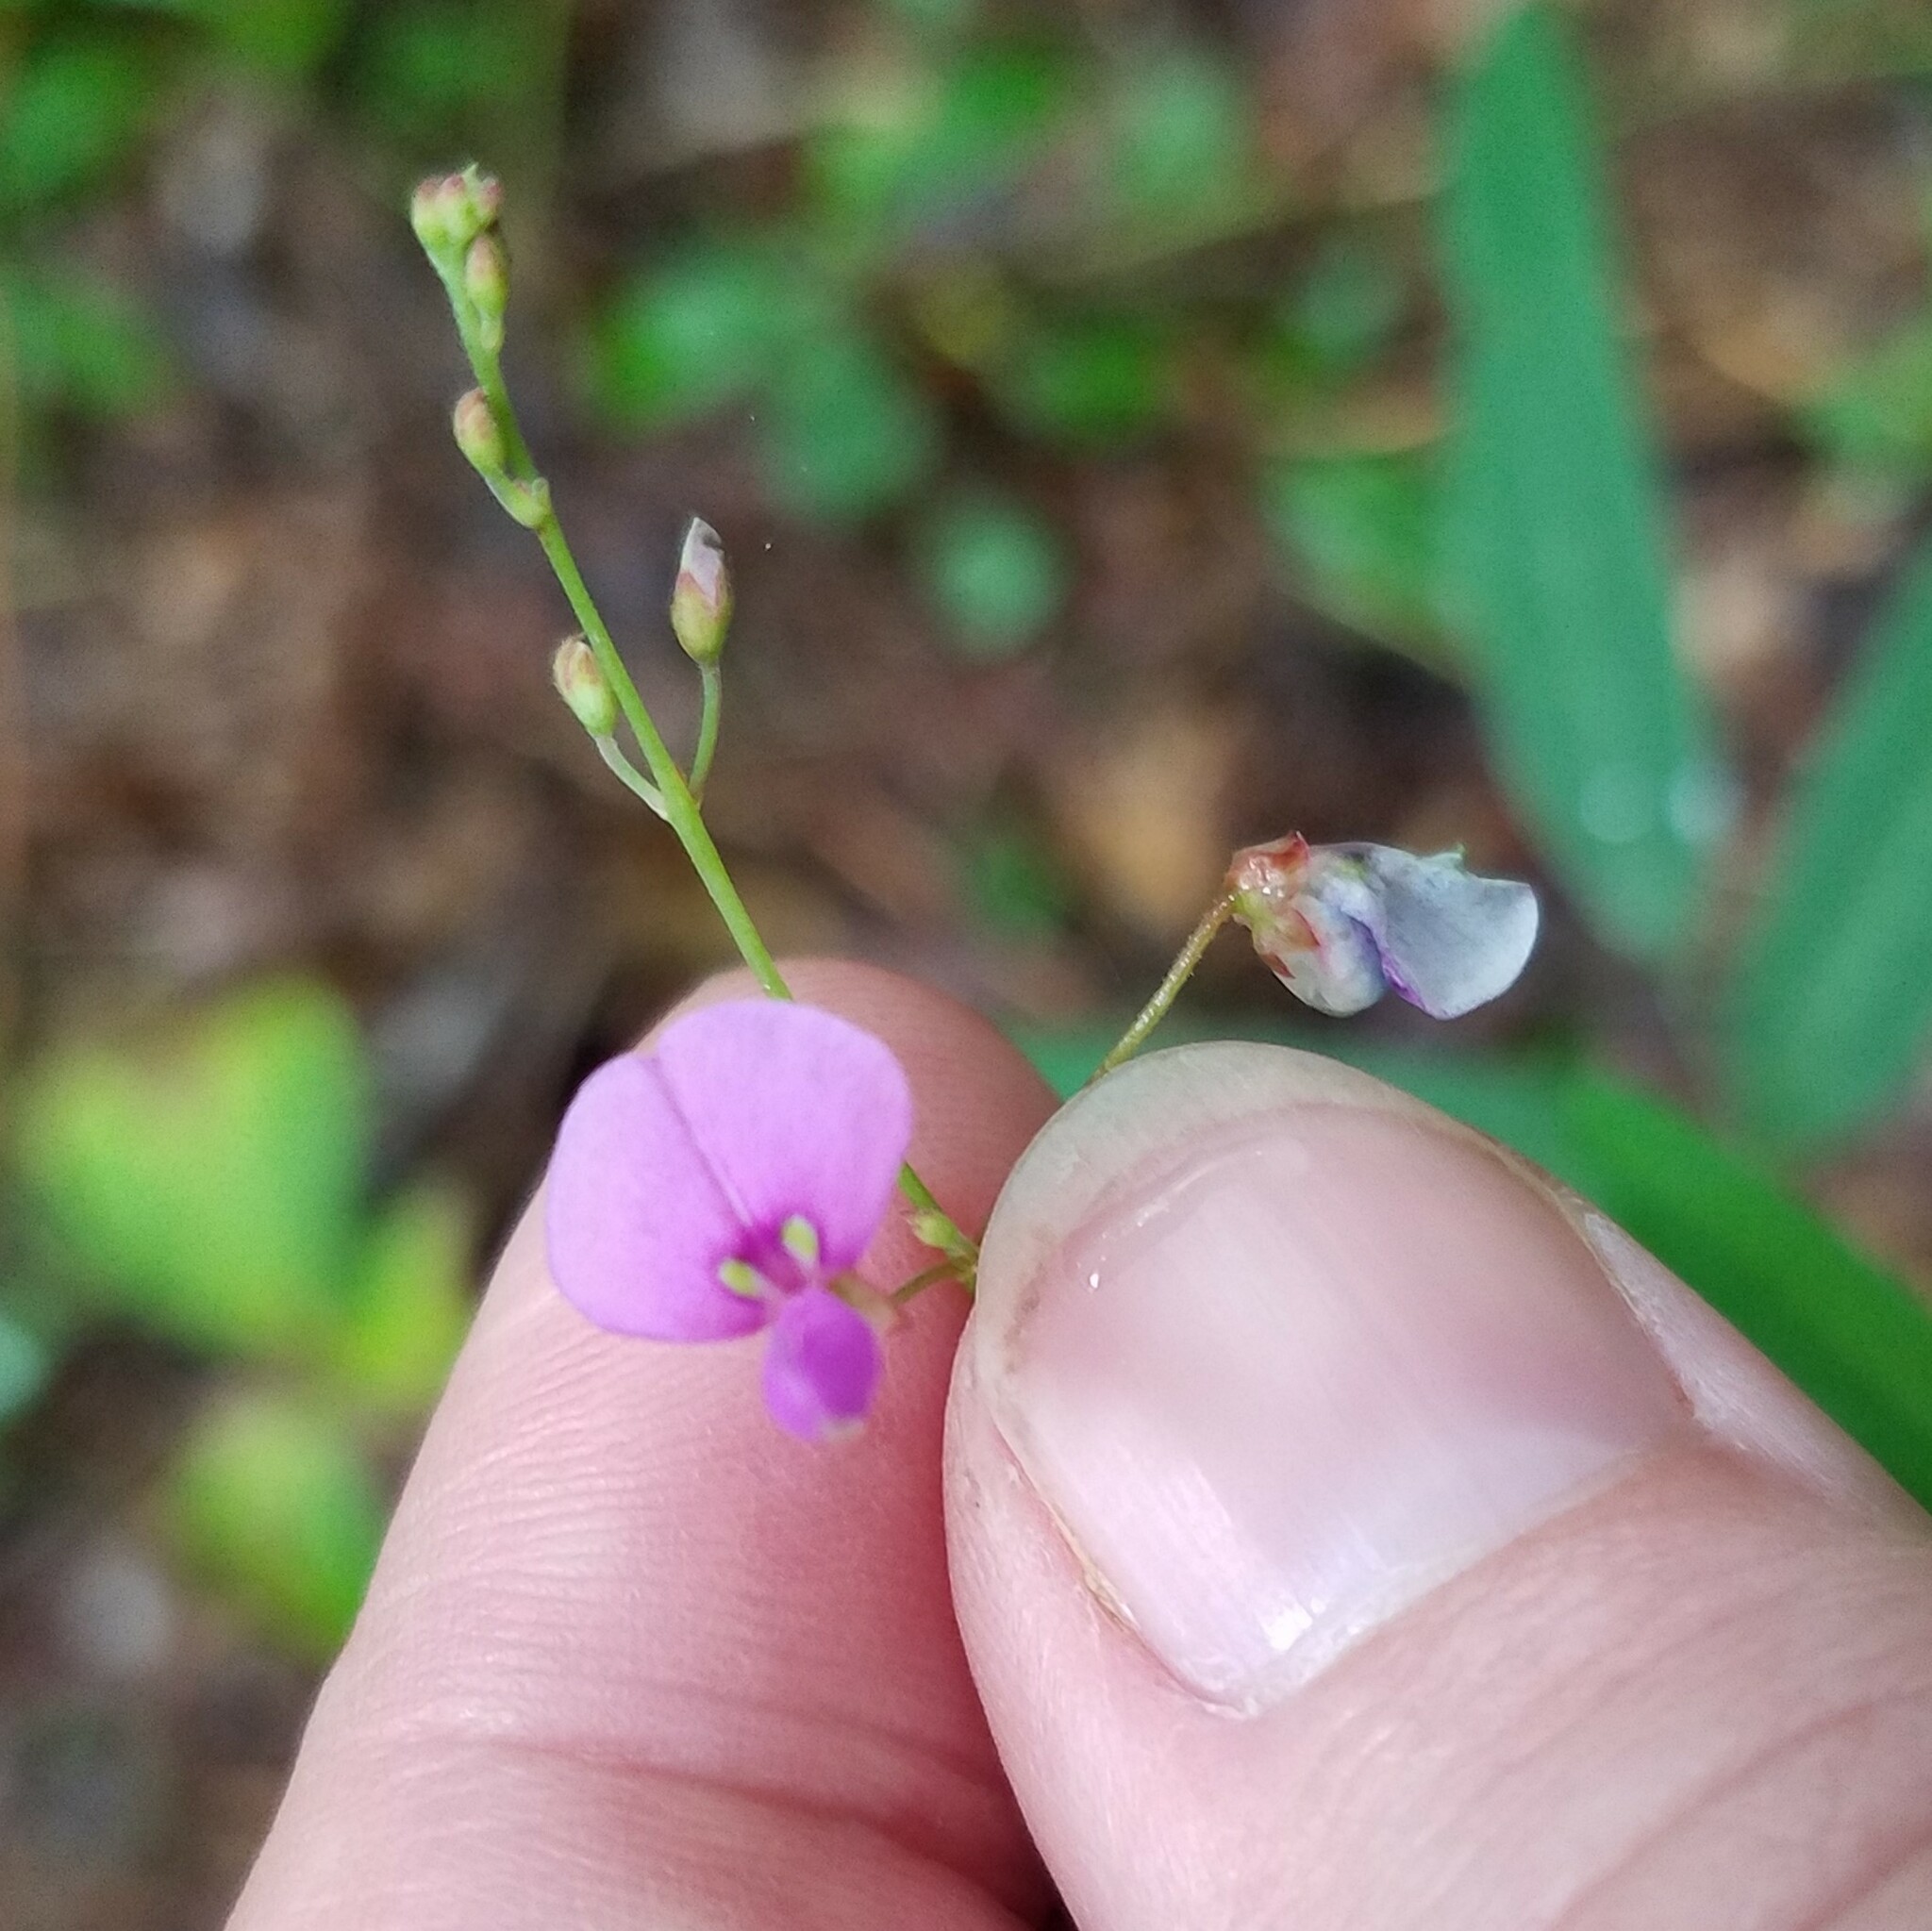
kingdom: Plantae
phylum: Tracheophyta
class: Magnoliopsida
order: Fabales
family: Fabaceae
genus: Desmodium
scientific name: Desmodium paniculatum
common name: Panicled tick-clover
